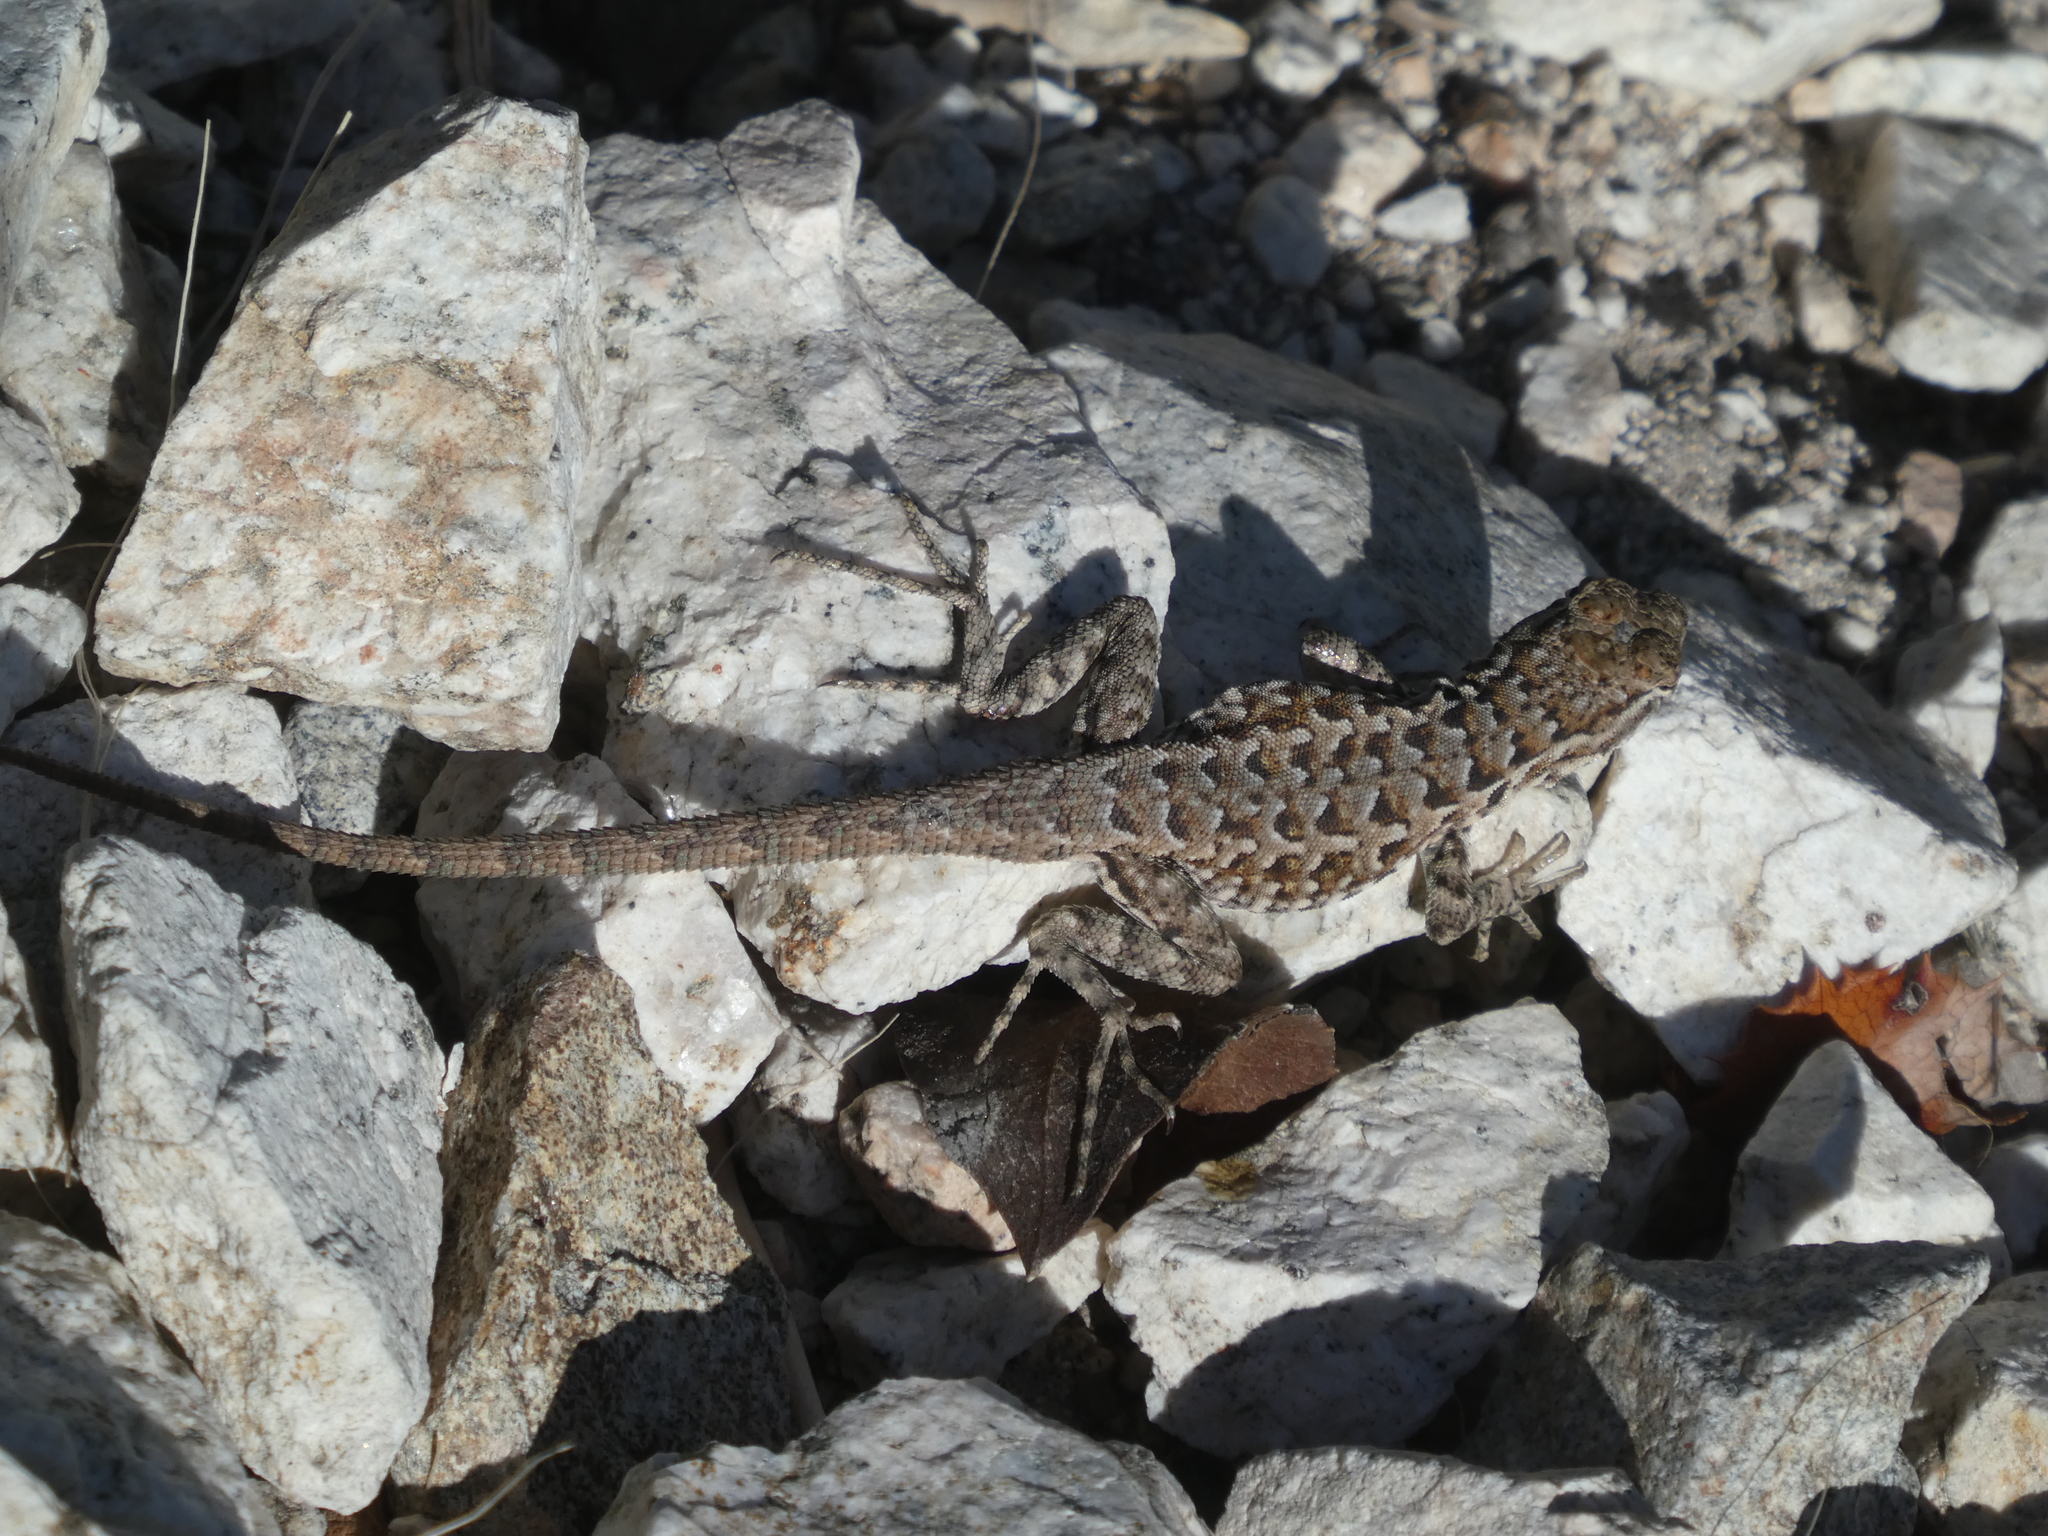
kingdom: Animalia
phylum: Chordata
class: Squamata
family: Phrynosomatidae
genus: Uta
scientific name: Uta stansburiana
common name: Side-blotched lizard
